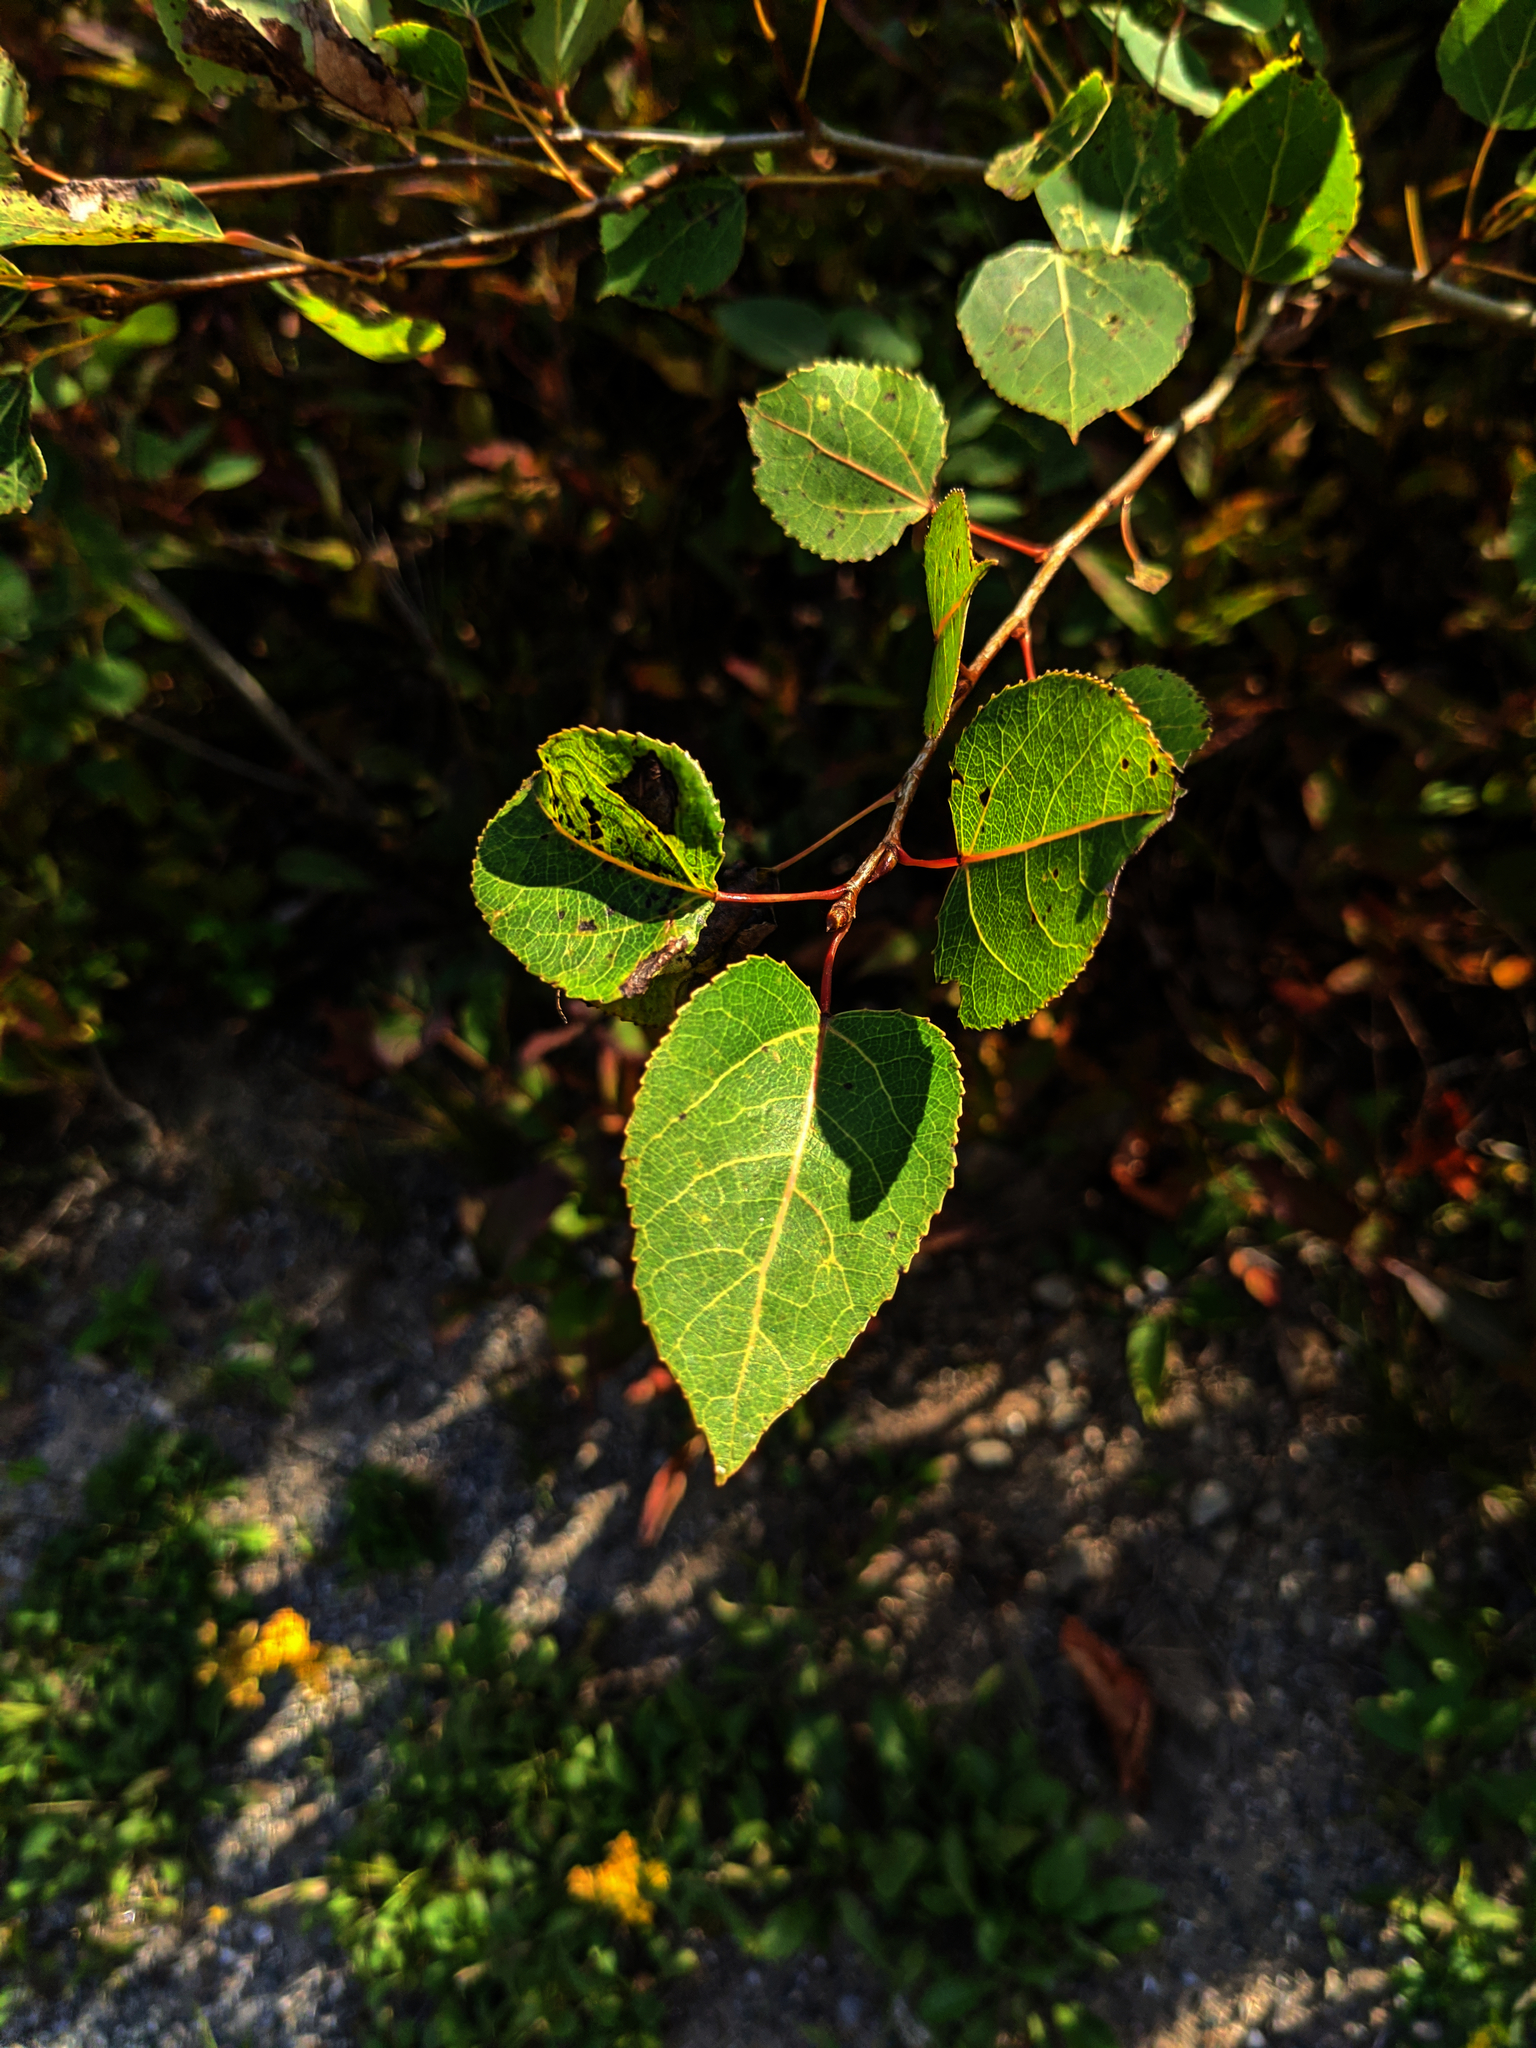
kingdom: Plantae
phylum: Tracheophyta
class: Magnoliopsida
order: Malpighiales
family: Salicaceae
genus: Populus
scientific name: Populus tremuloides
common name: Quaking aspen
